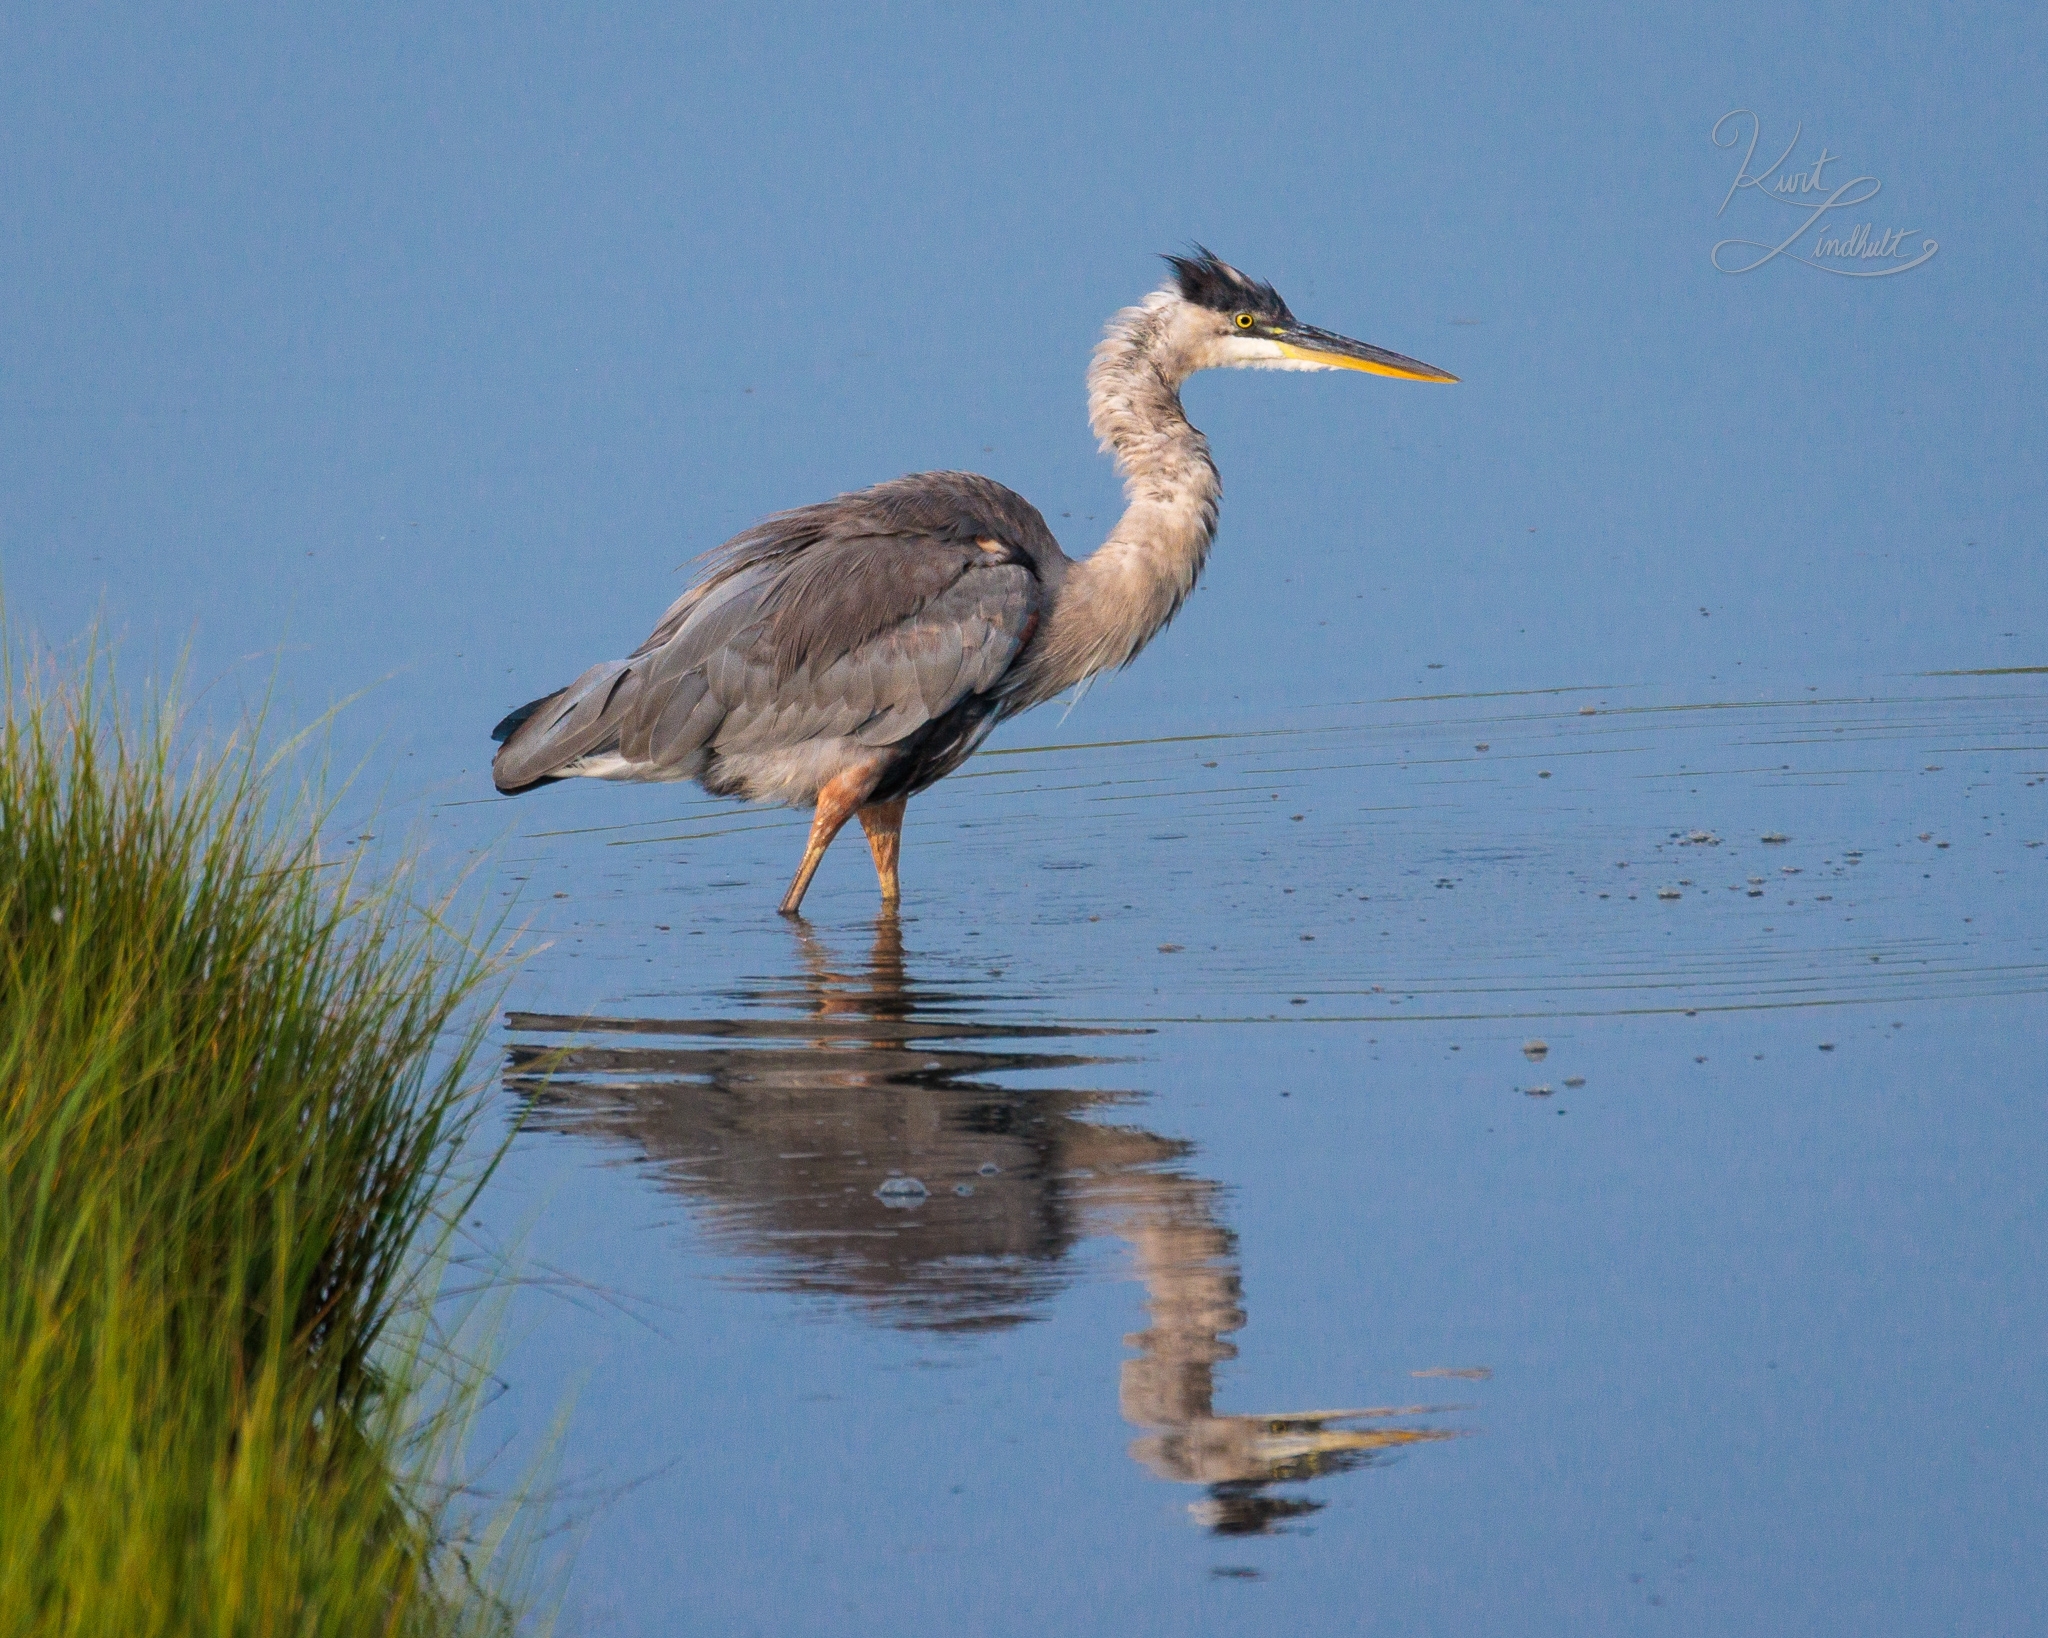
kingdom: Animalia
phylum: Chordata
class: Aves
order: Pelecaniformes
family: Ardeidae
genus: Ardea
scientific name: Ardea herodias
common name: Great blue heron
